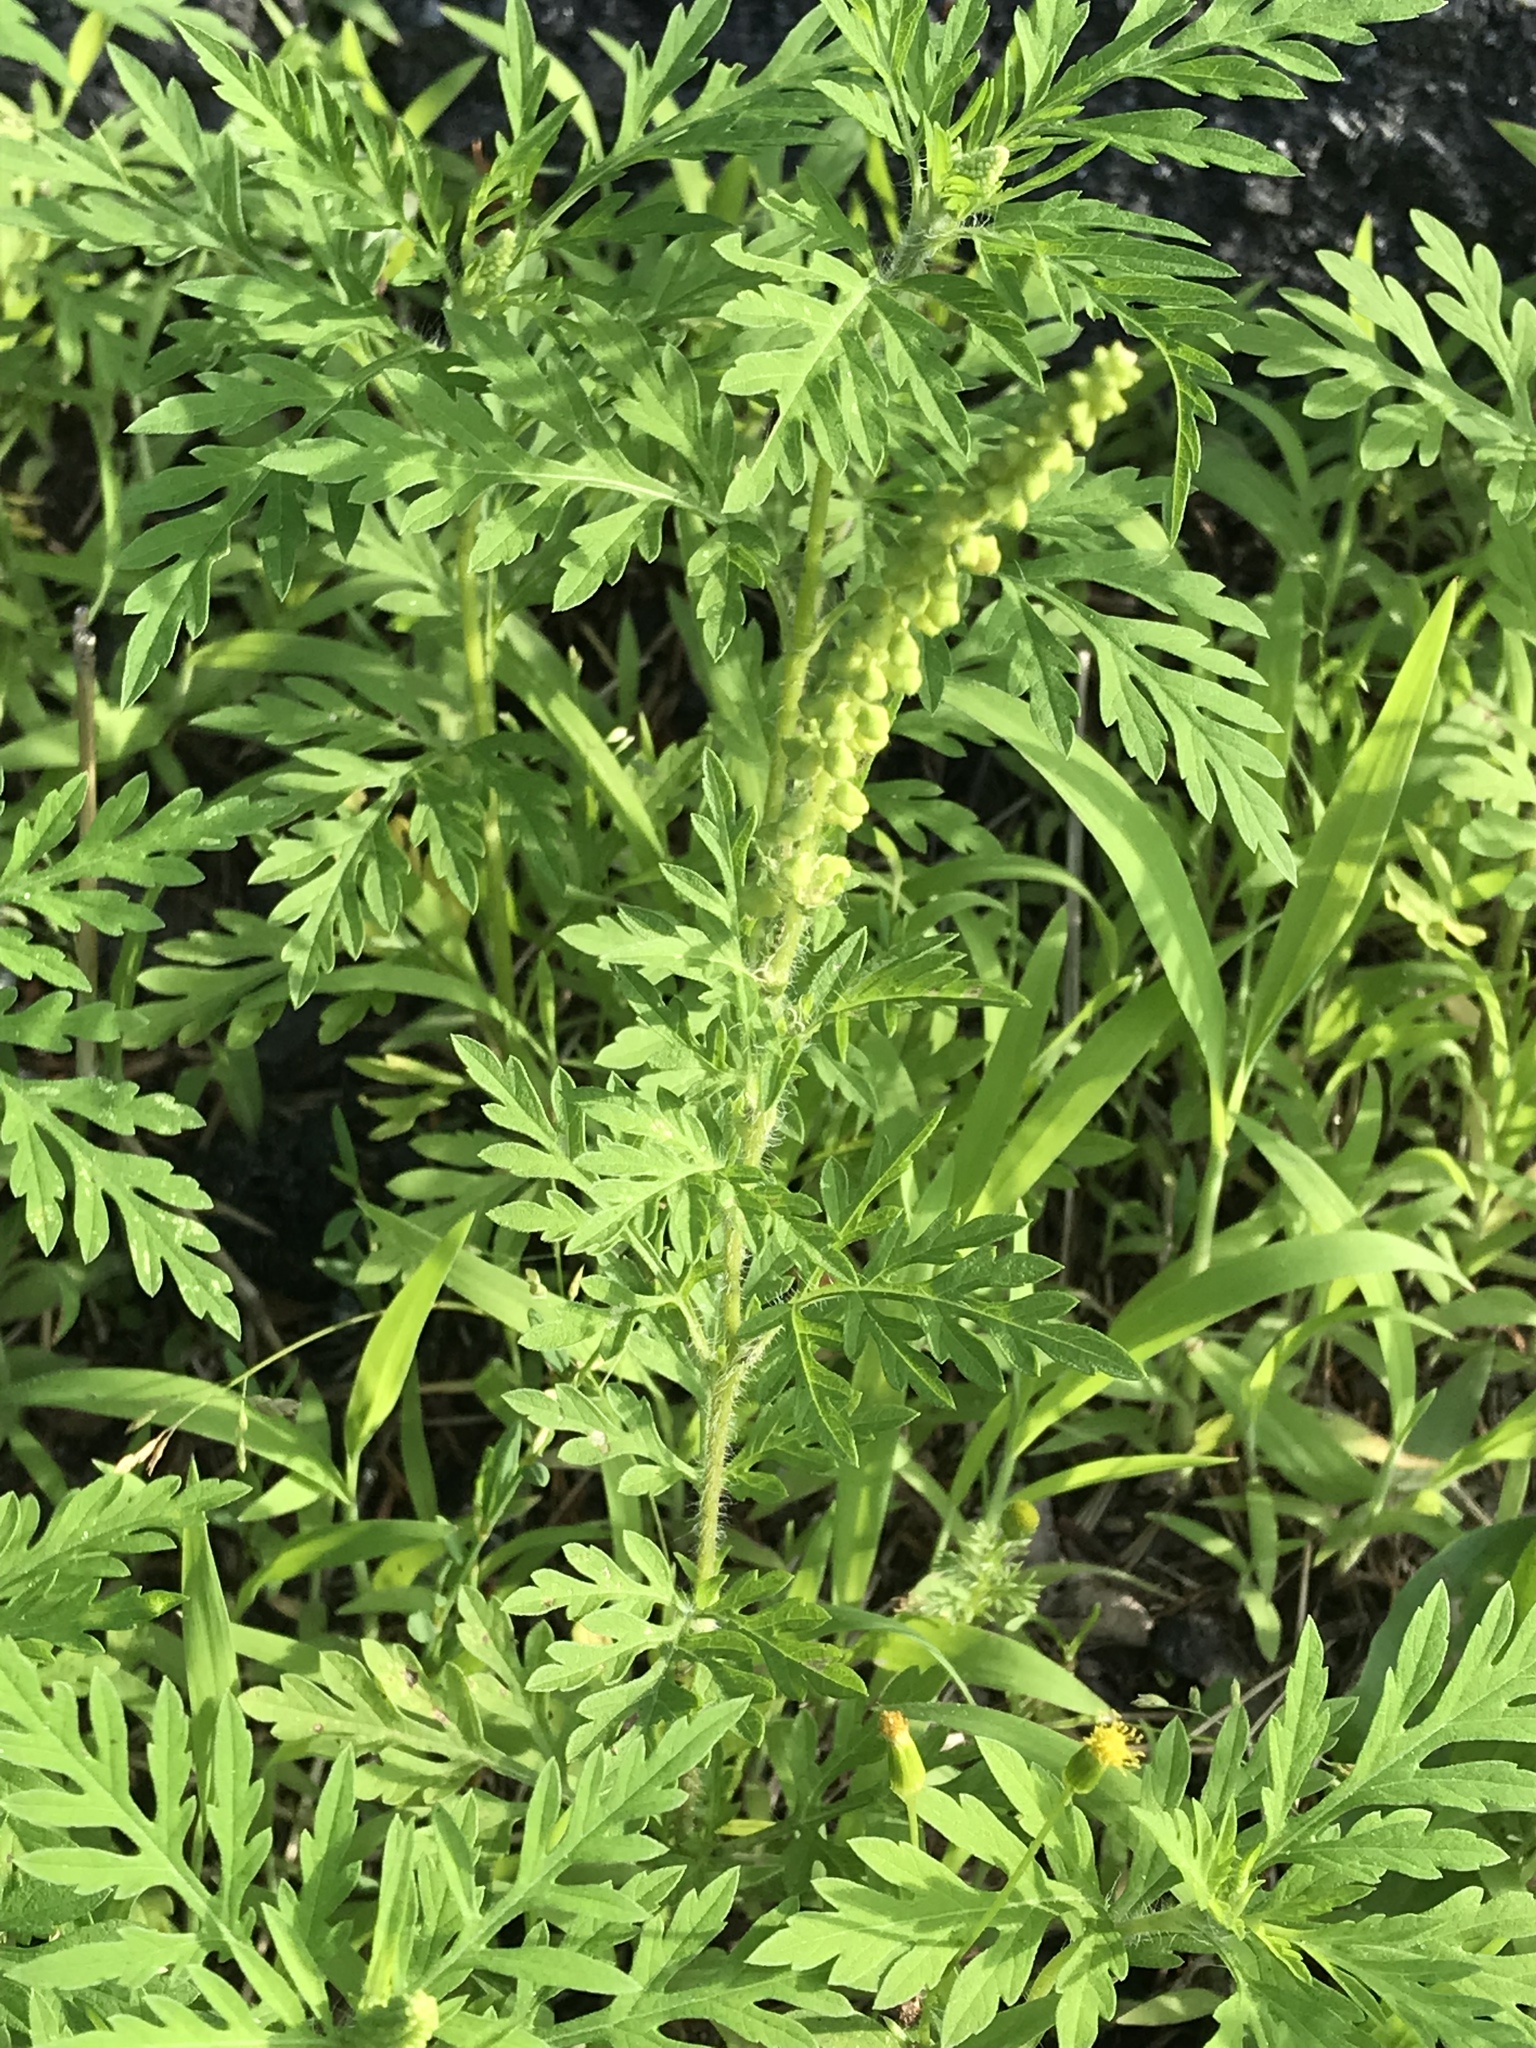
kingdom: Plantae
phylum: Tracheophyta
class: Magnoliopsida
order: Asterales
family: Asteraceae
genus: Ambrosia
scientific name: Ambrosia artemisiifolia
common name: Annual ragweed
